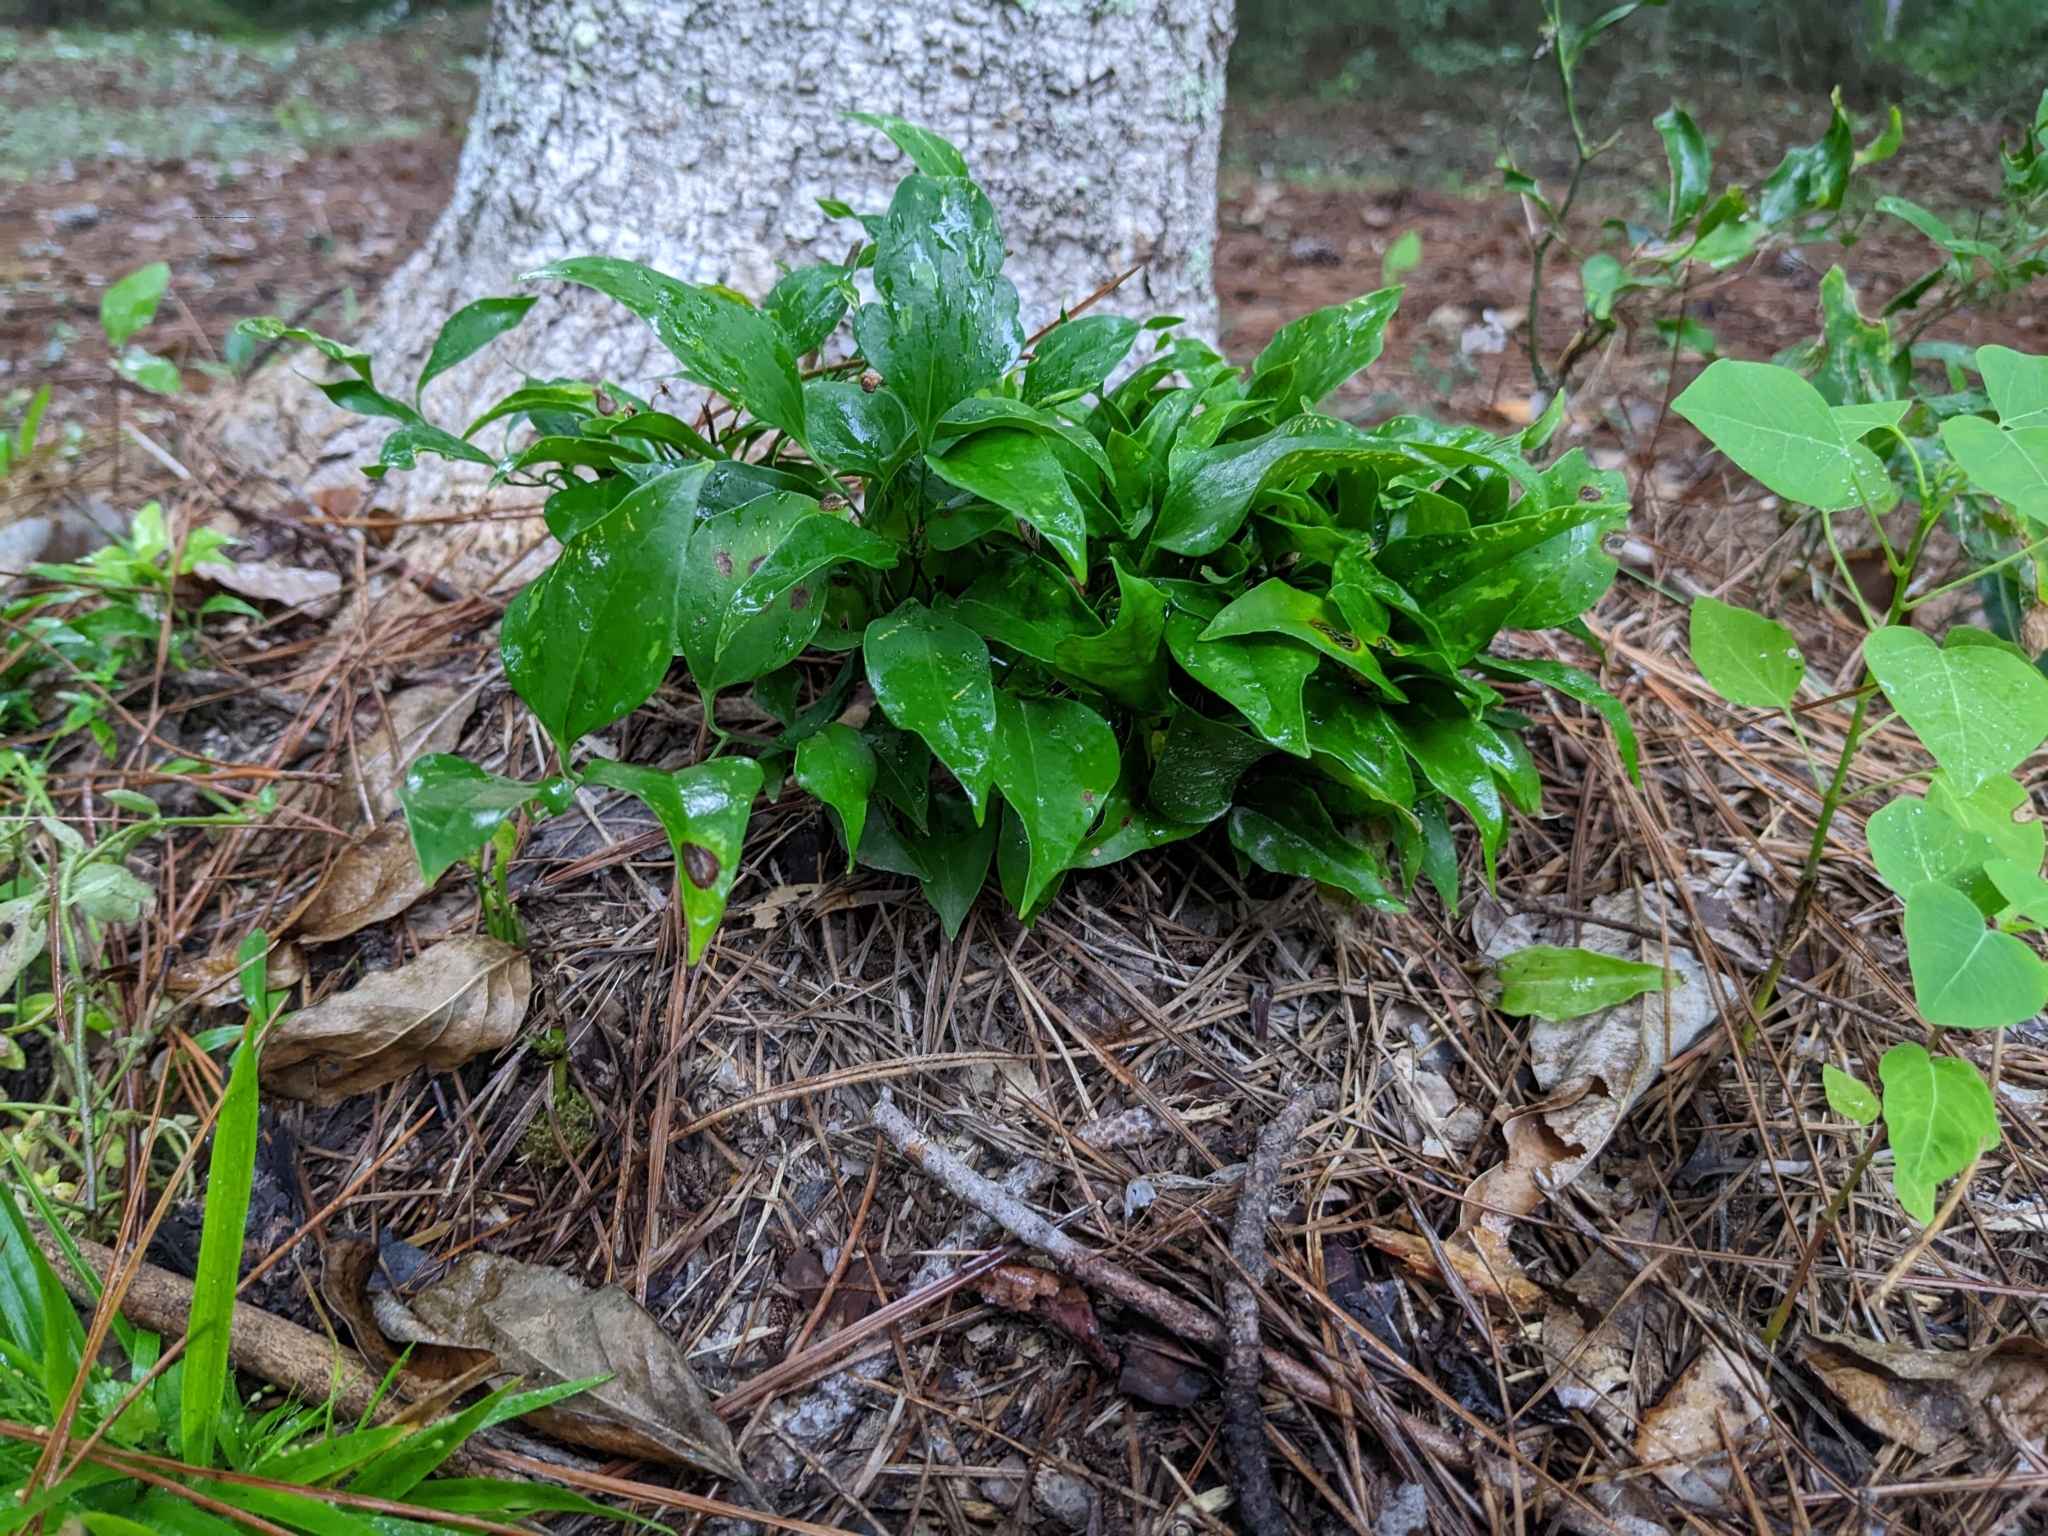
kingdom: Plantae
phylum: Tracheophyta
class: Liliopsida
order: Liliales
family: Smilacaceae
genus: Smilax
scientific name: Smilax maritima
